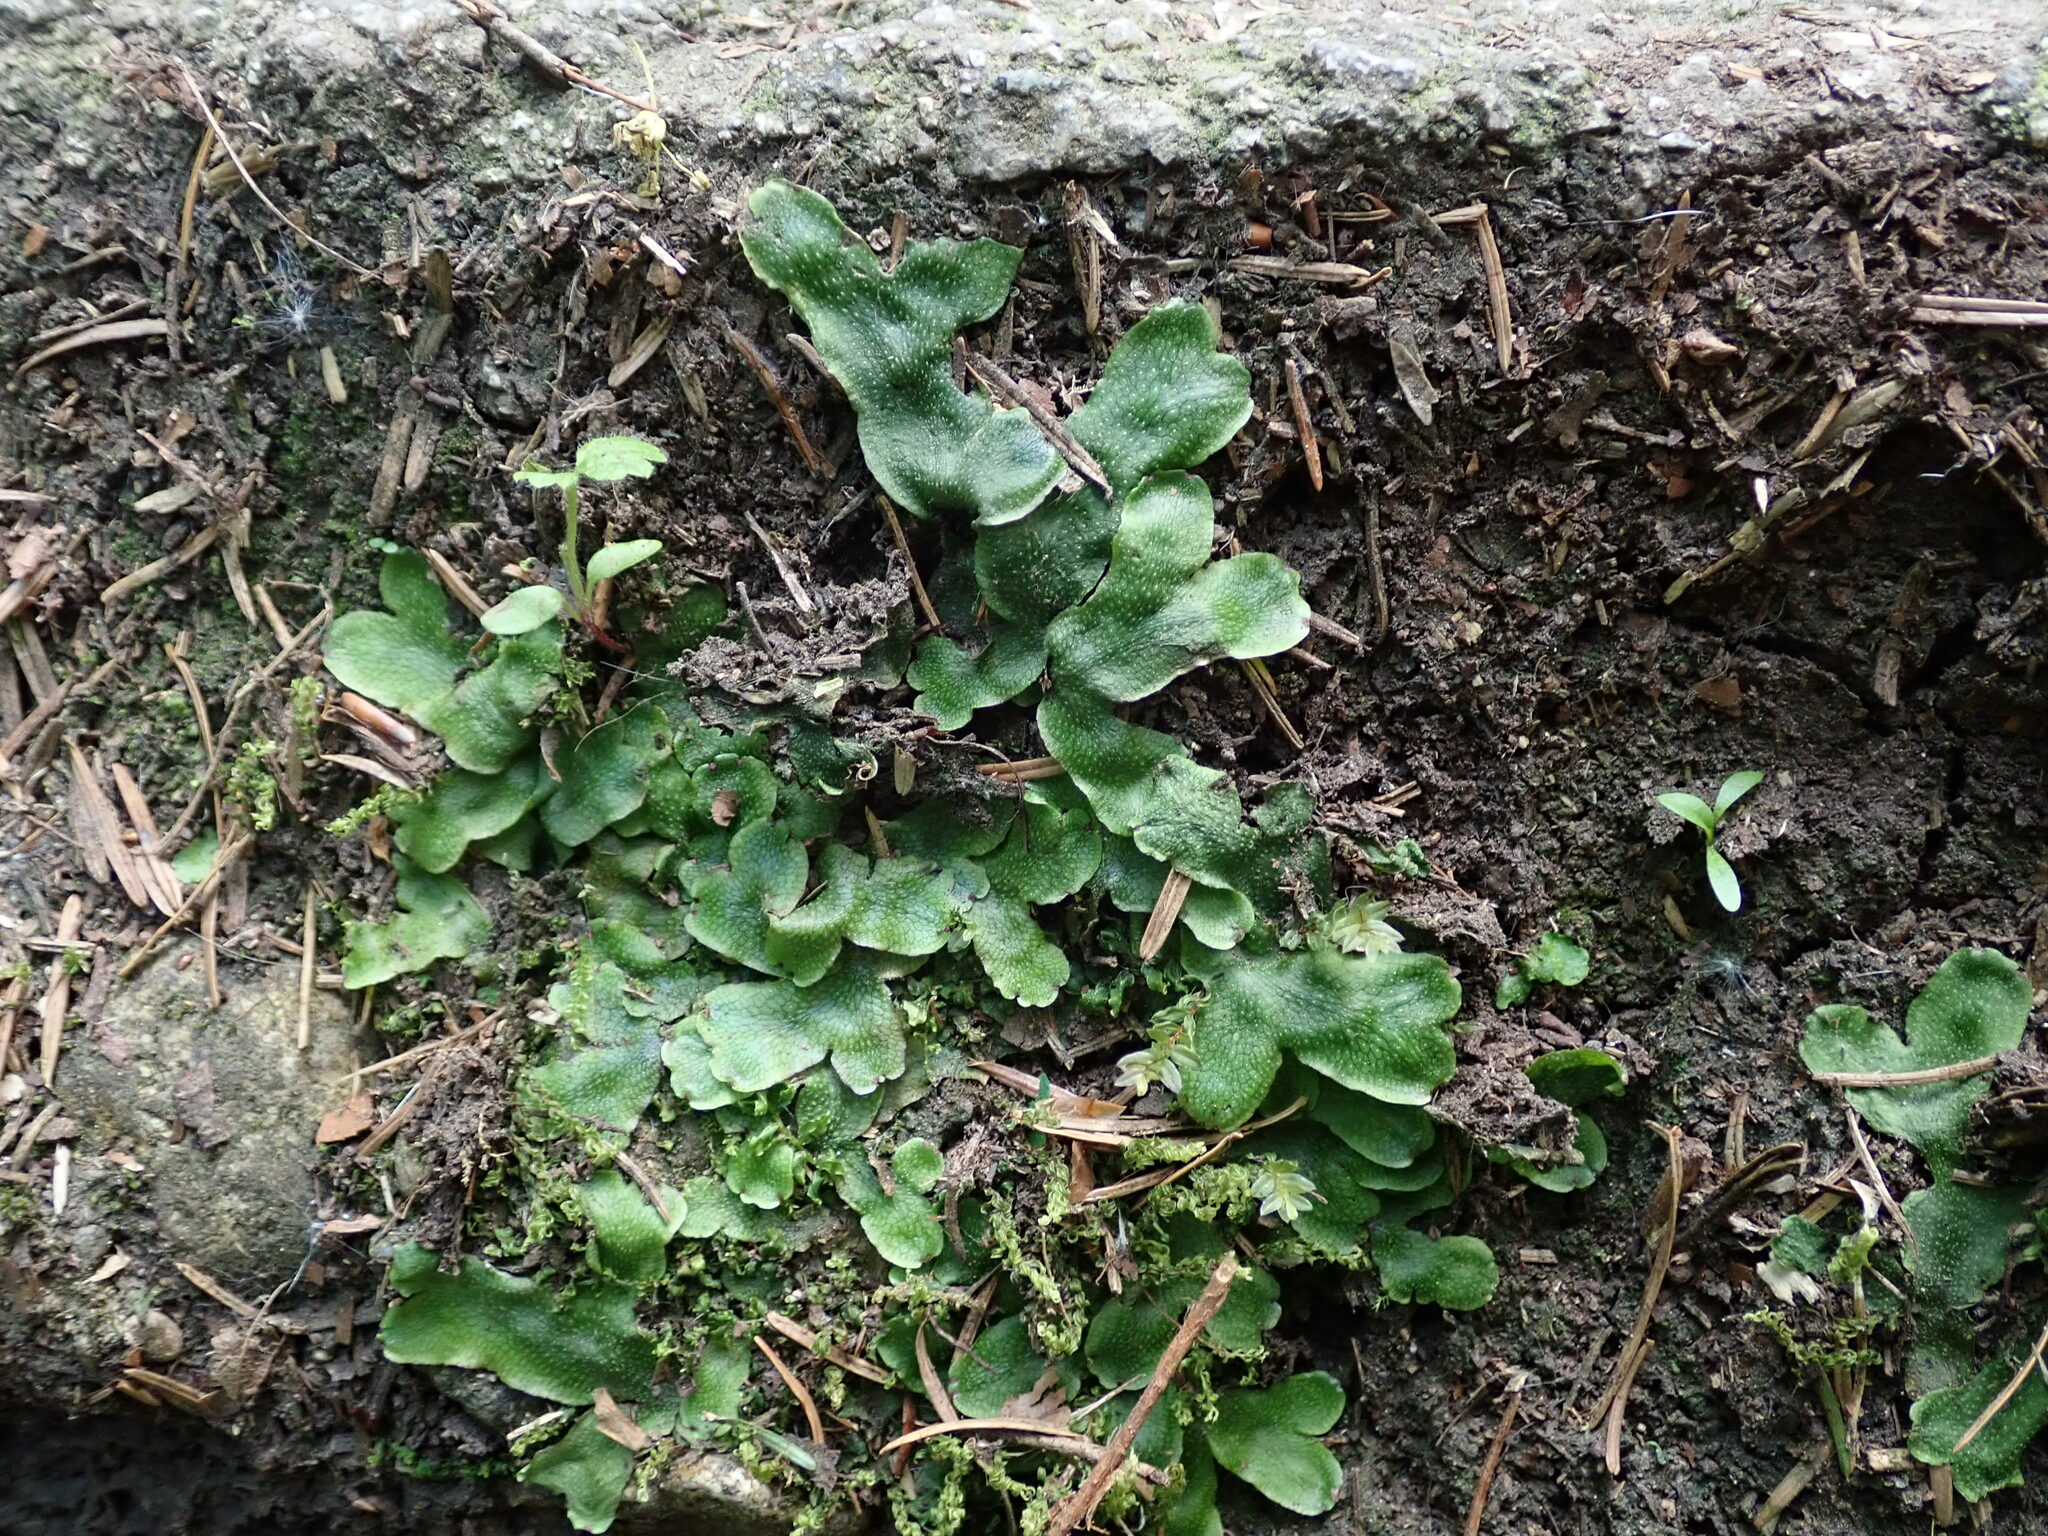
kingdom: Plantae
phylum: Marchantiophyta
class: Marchantiopsida
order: Marchantiales
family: Conocephalaceae
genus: Conocephalum
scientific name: Conocephalum conicum
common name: Great scented liverwort
